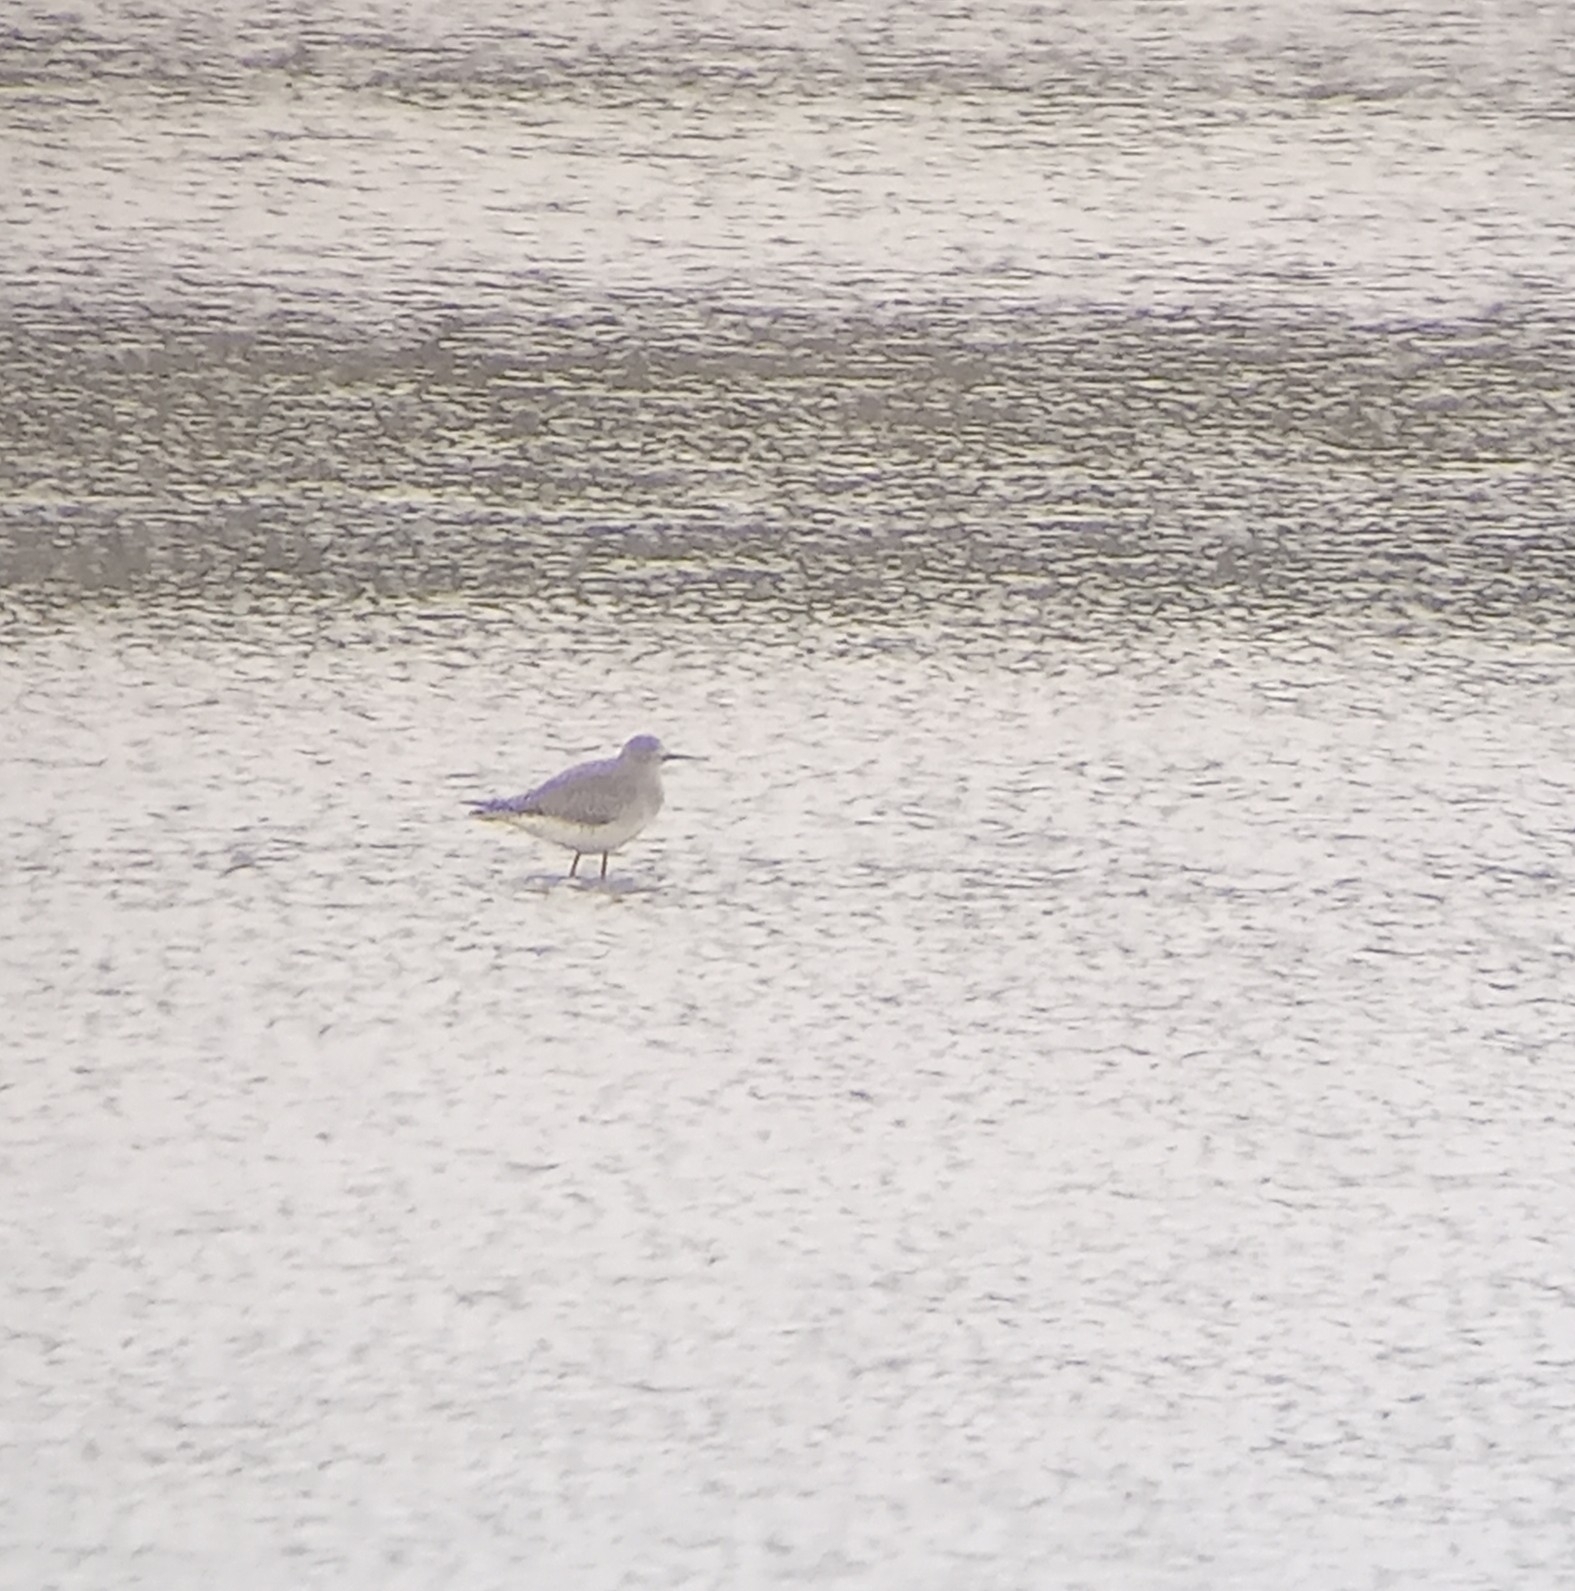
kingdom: Animalia
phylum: Chordata
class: Aves
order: Charadriiformes
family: Scolopacidae
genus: Tringa
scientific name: Tringa flavipes
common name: Lesser yellowlegs
